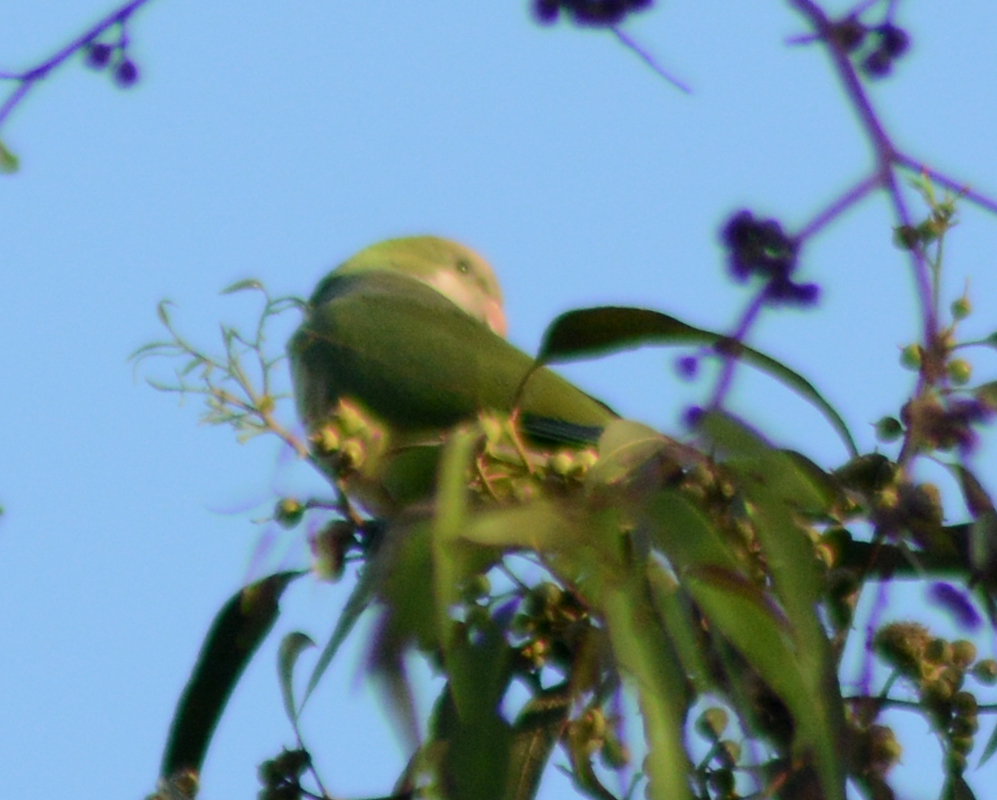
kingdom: Animalia
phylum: Chordata
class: Aves
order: Psittaciformes
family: Psittacidae
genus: Myiopsitta
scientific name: Myiopsitta monachus
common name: Monk parakeet
